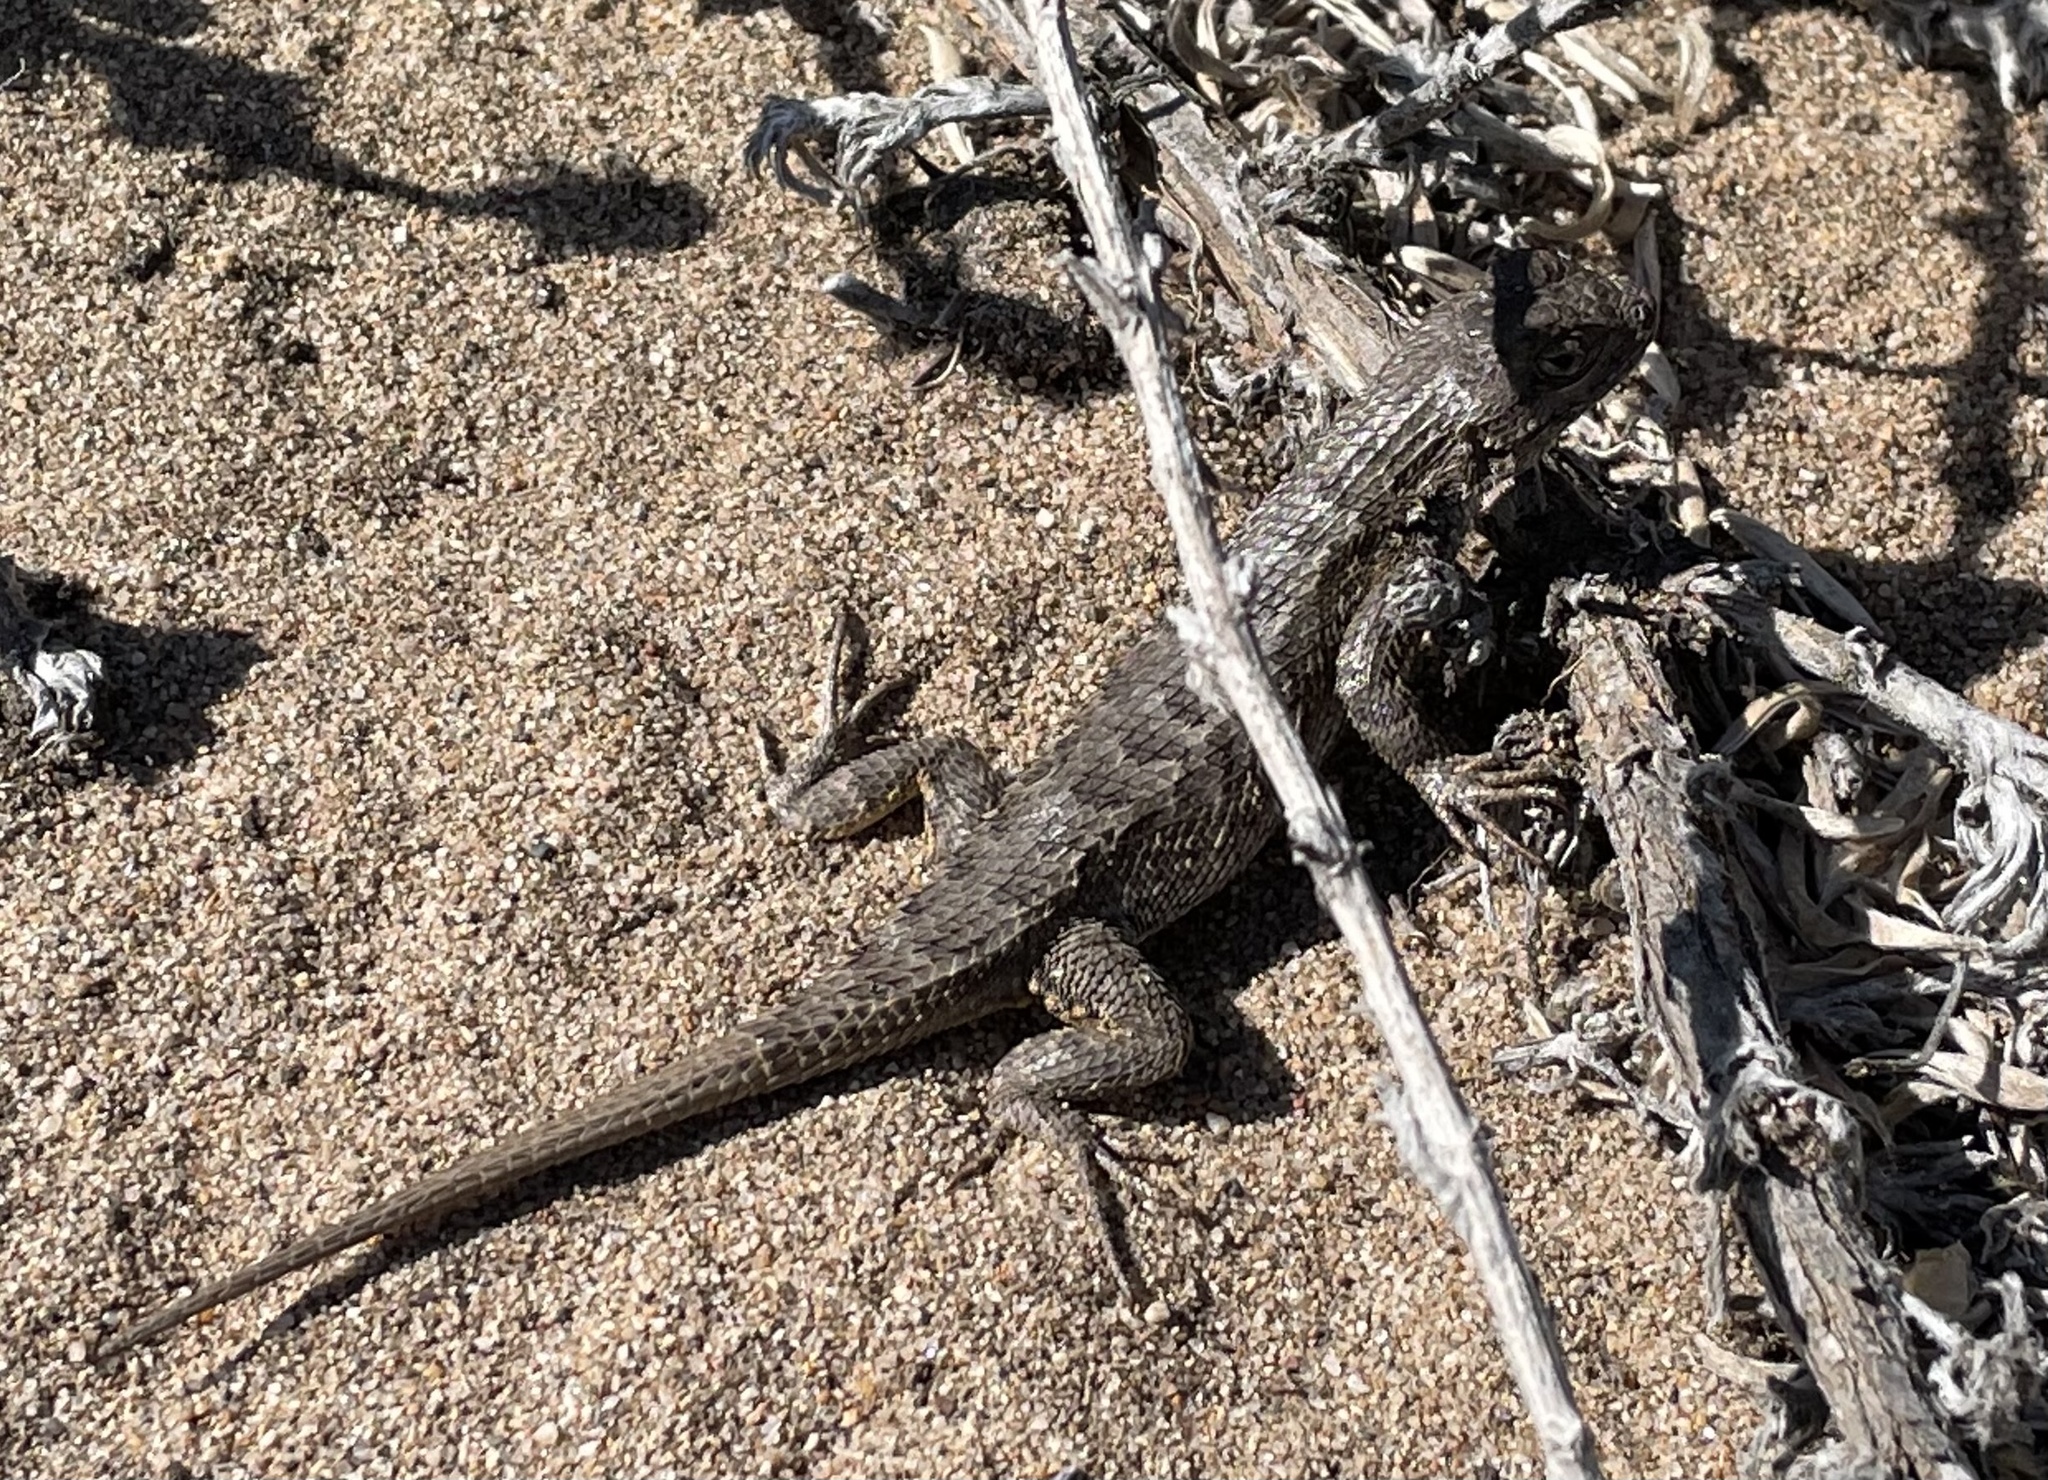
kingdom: Animalia
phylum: Chordata
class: Squamata
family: Phrynosomatidae
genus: Sceloporus
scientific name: Sceloporus occidentalis
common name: Western fence lizard
